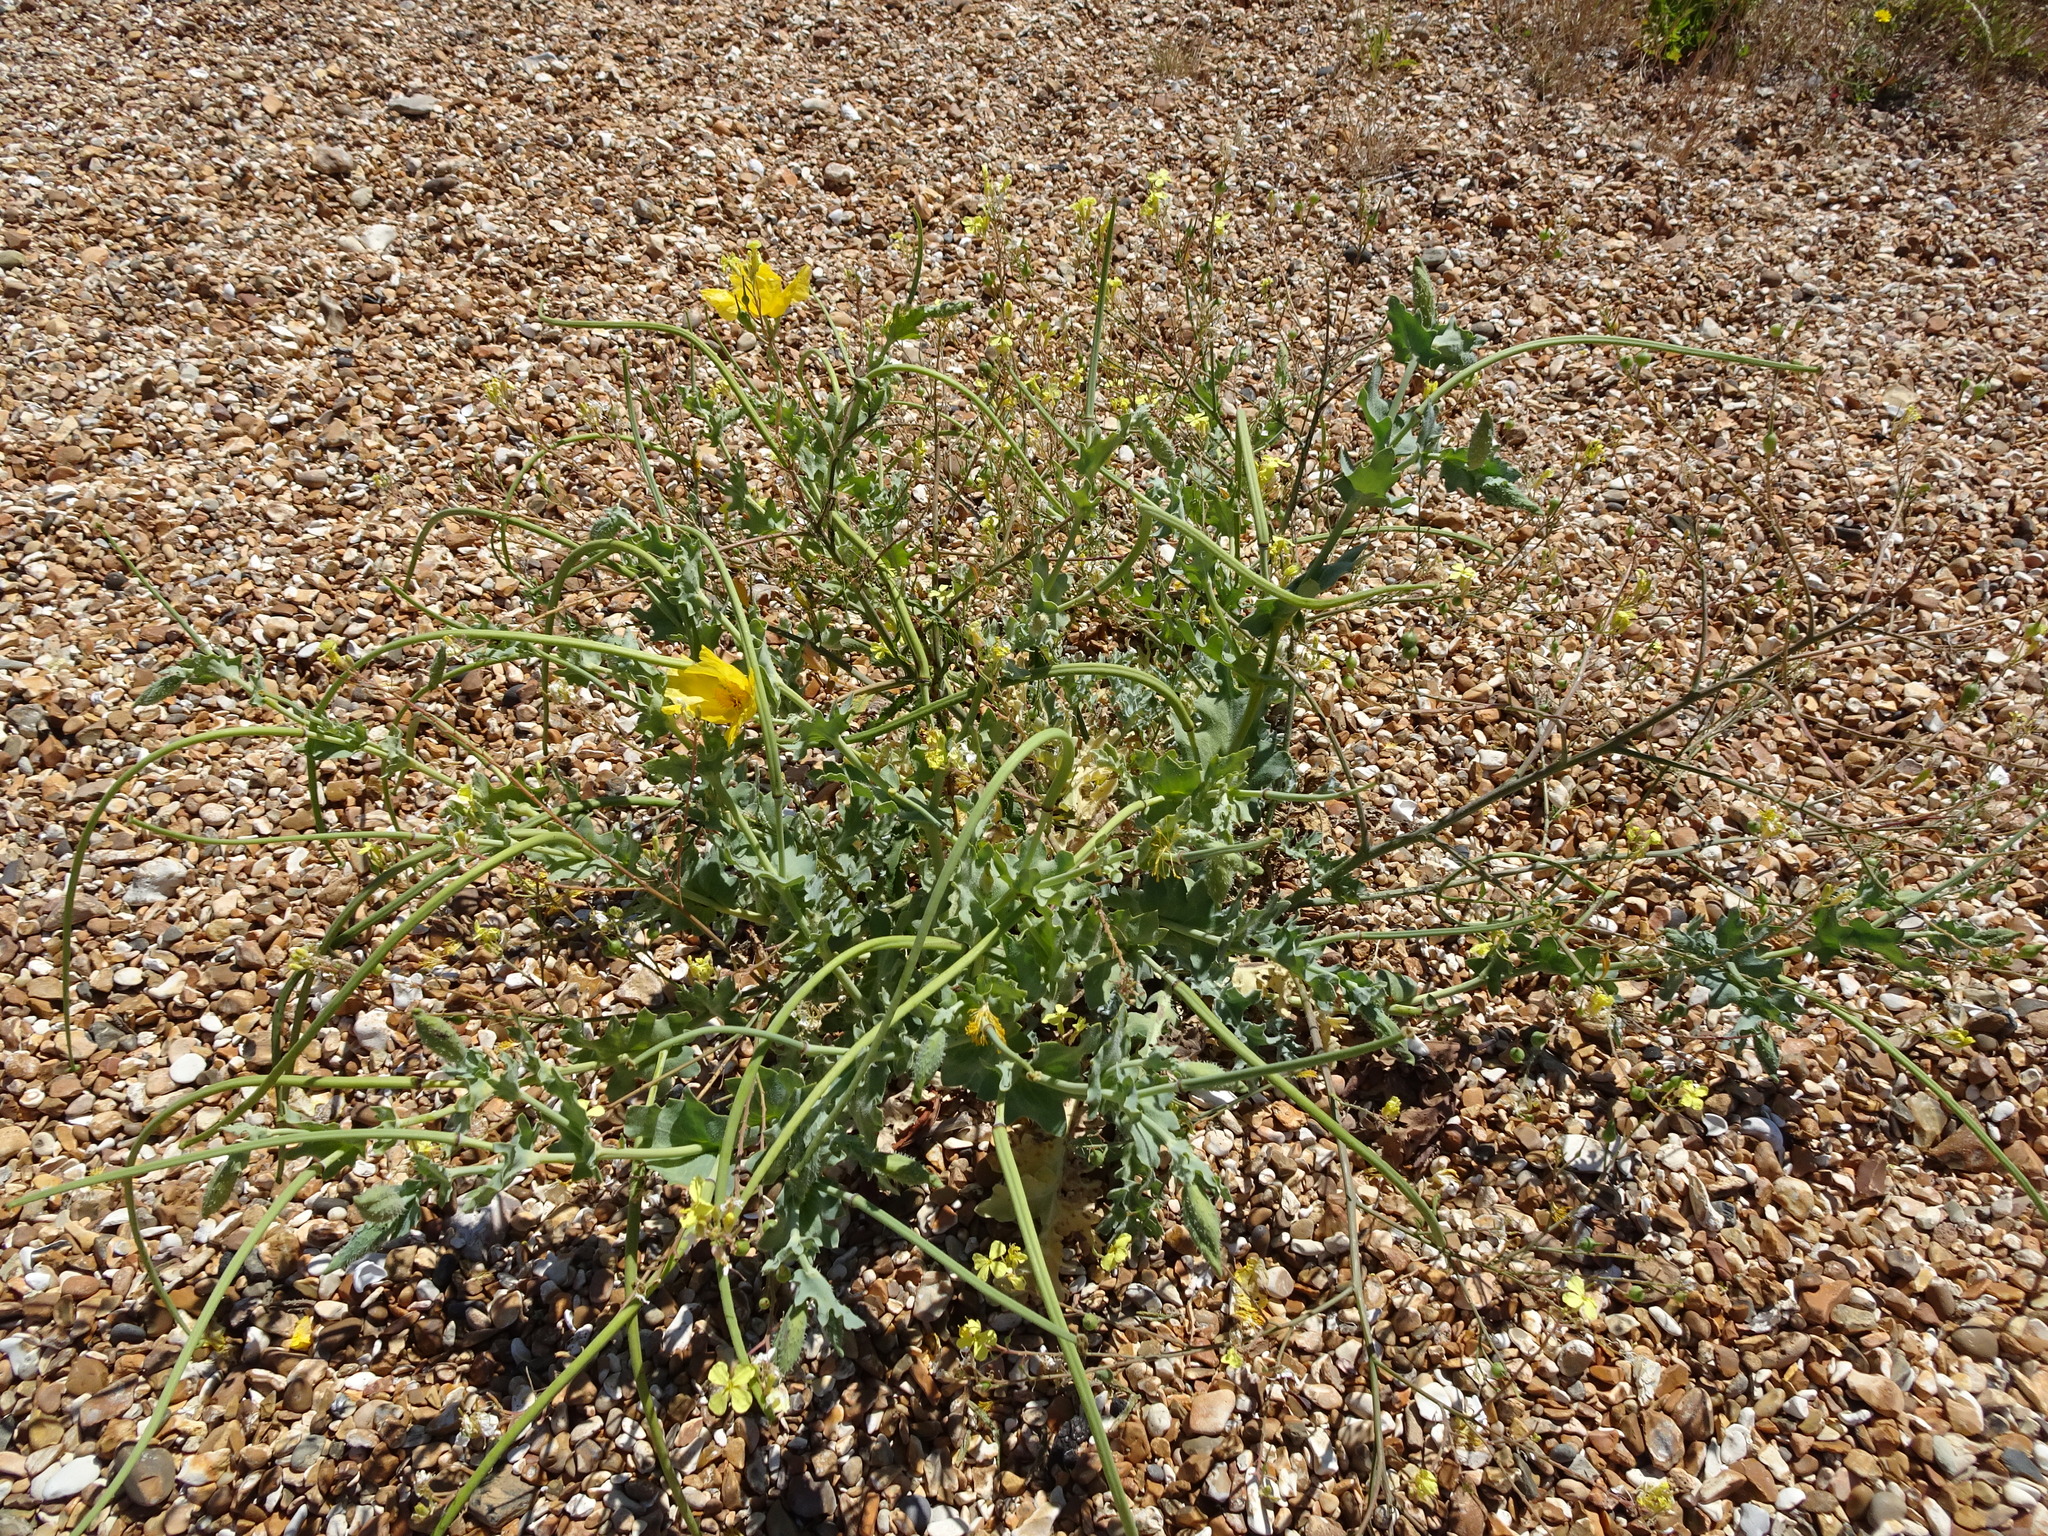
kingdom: Plantae
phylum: Tracheophyta
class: Magnoliopsida
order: Ranunculales
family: Papaveraceae
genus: Glaucium
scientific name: Glaucium flavum
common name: Yellow horned-poppy
